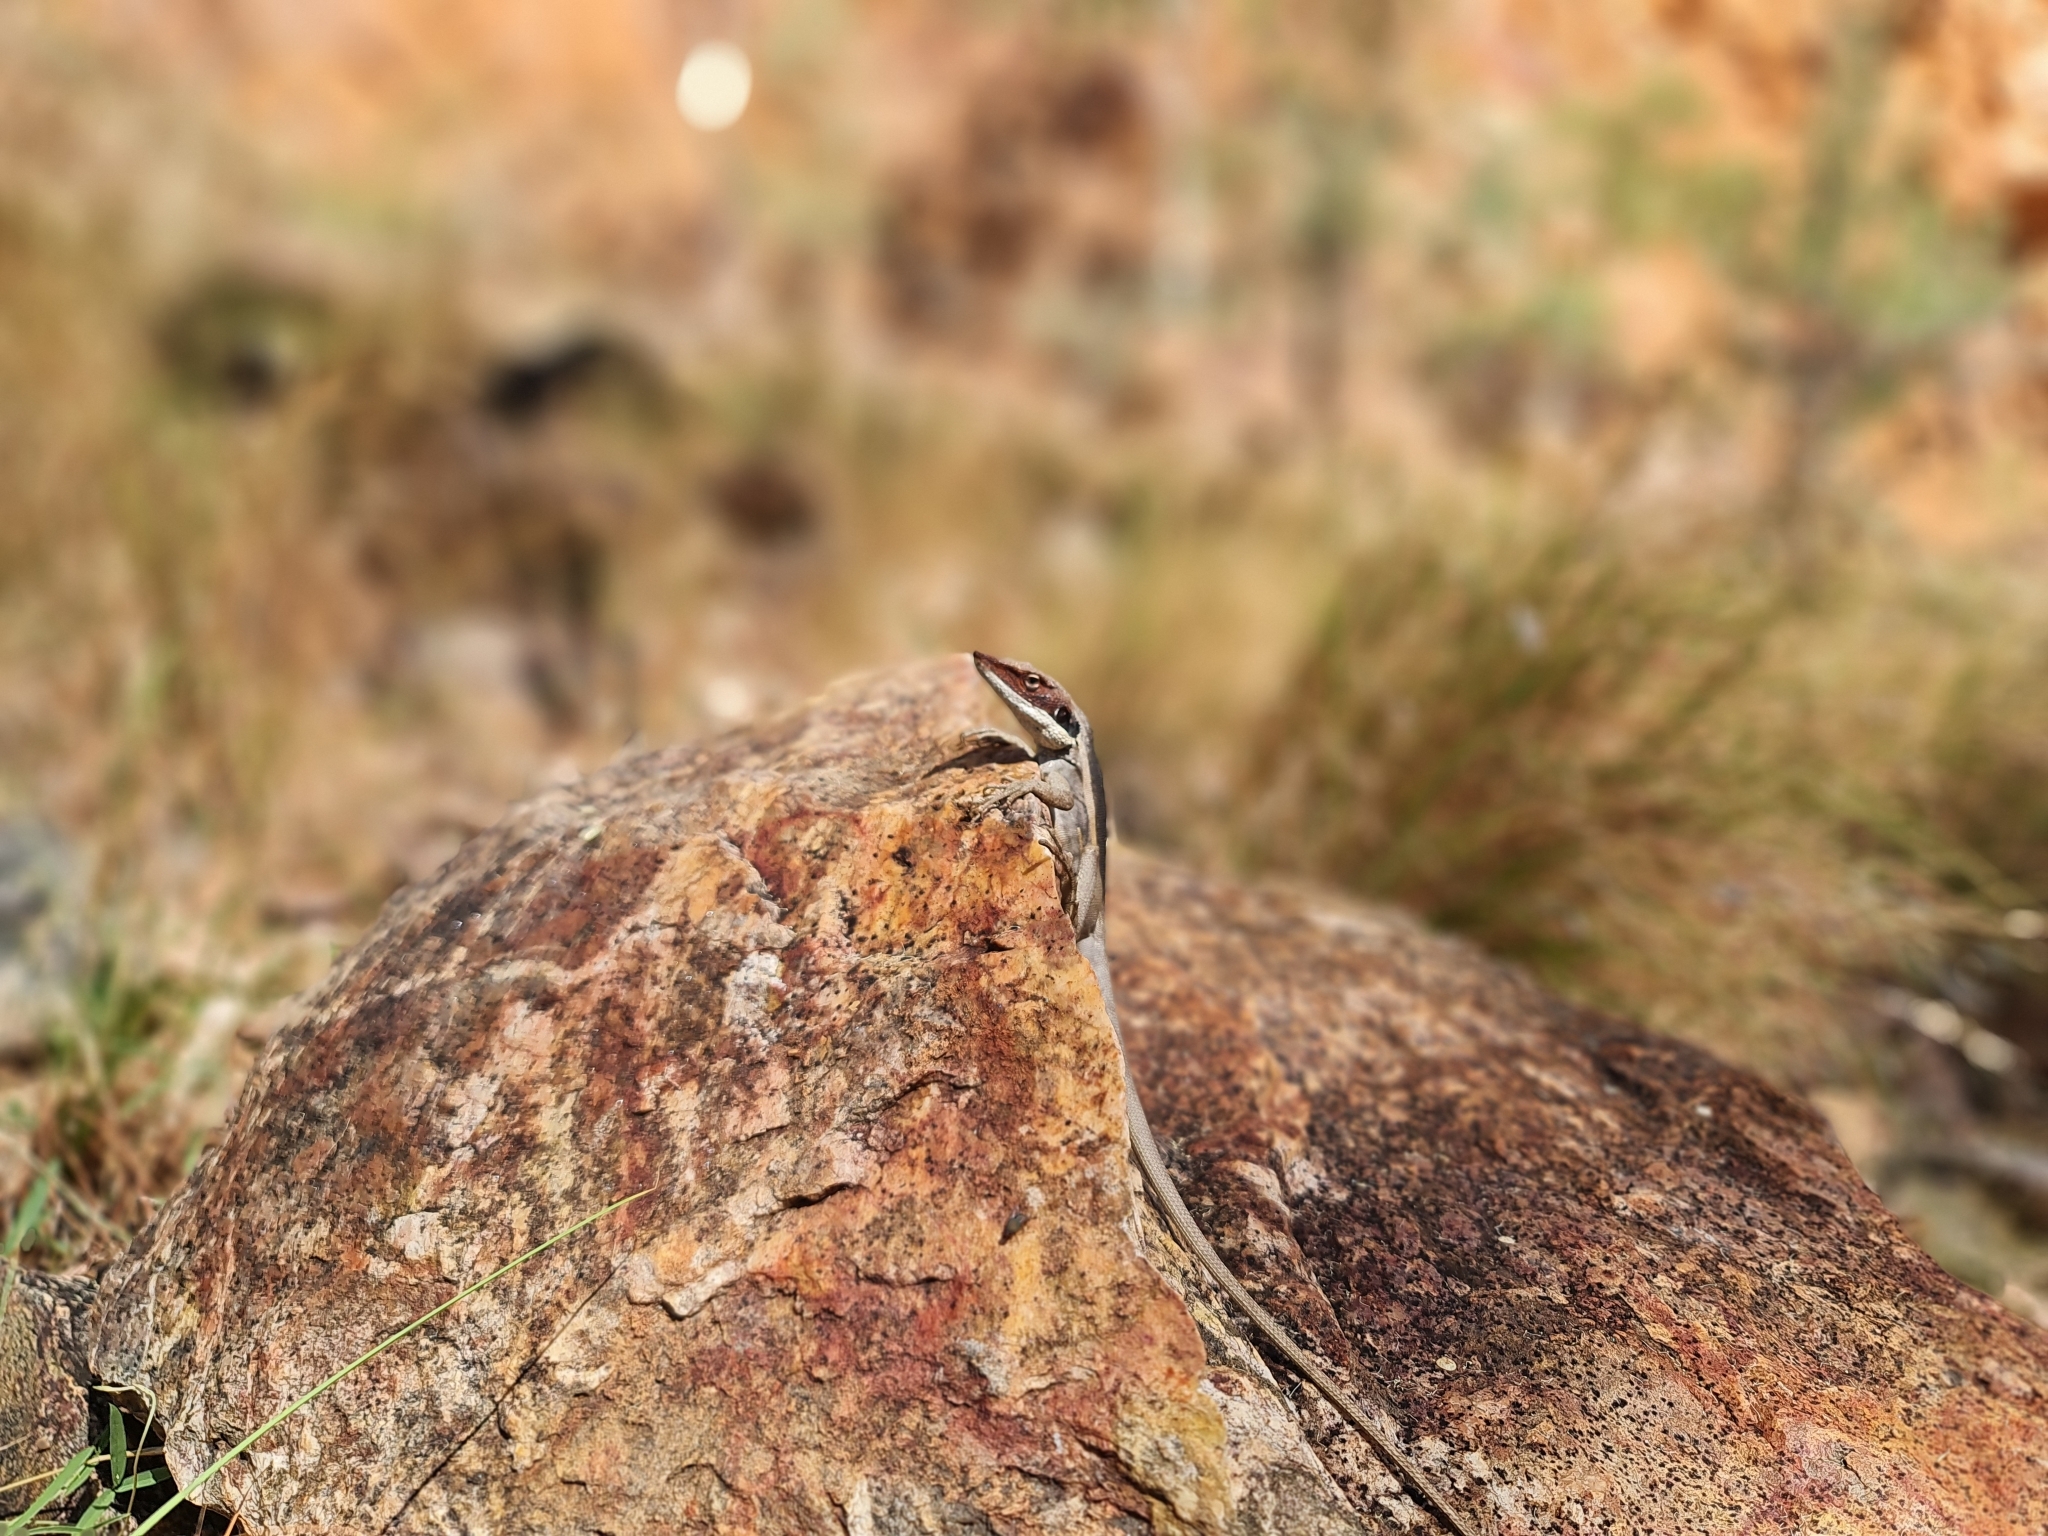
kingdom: Animalia
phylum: Chordata
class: Squamata
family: Agamidae
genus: Gowidon
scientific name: Gowidon longirostris
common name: Long-nosed water dragon
